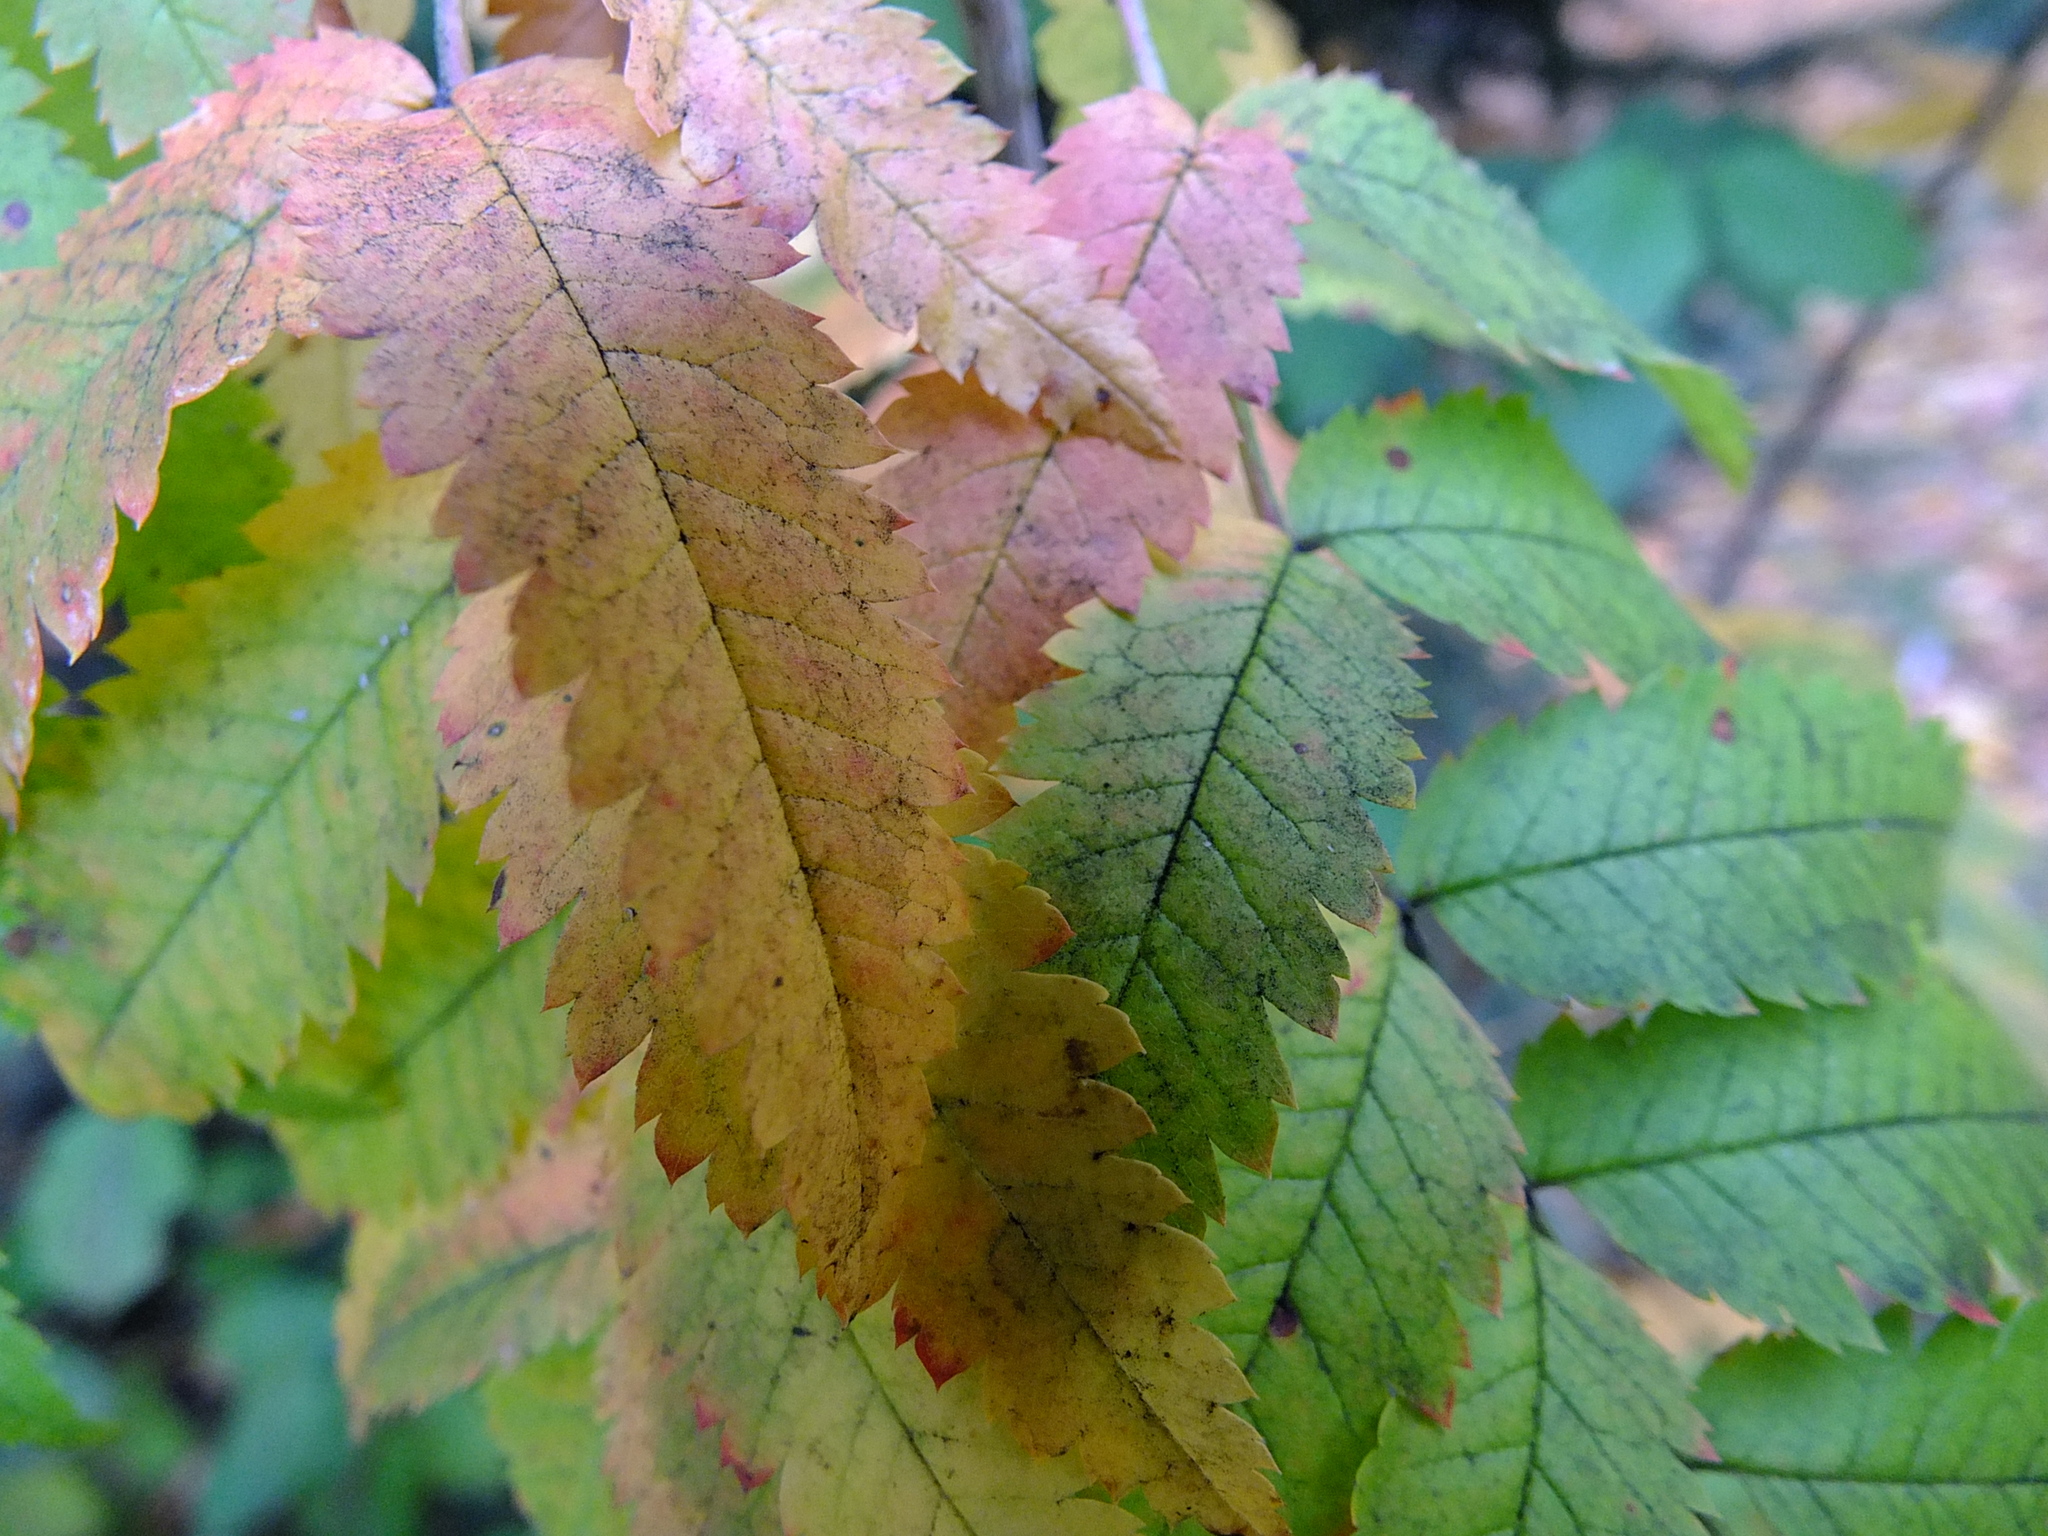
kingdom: Plantae
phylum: Tracheophyta
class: Magnoliopsida
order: Rosales
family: Rosaceae
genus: Sorbus
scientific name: Sorbus aucuparia
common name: Rowan
